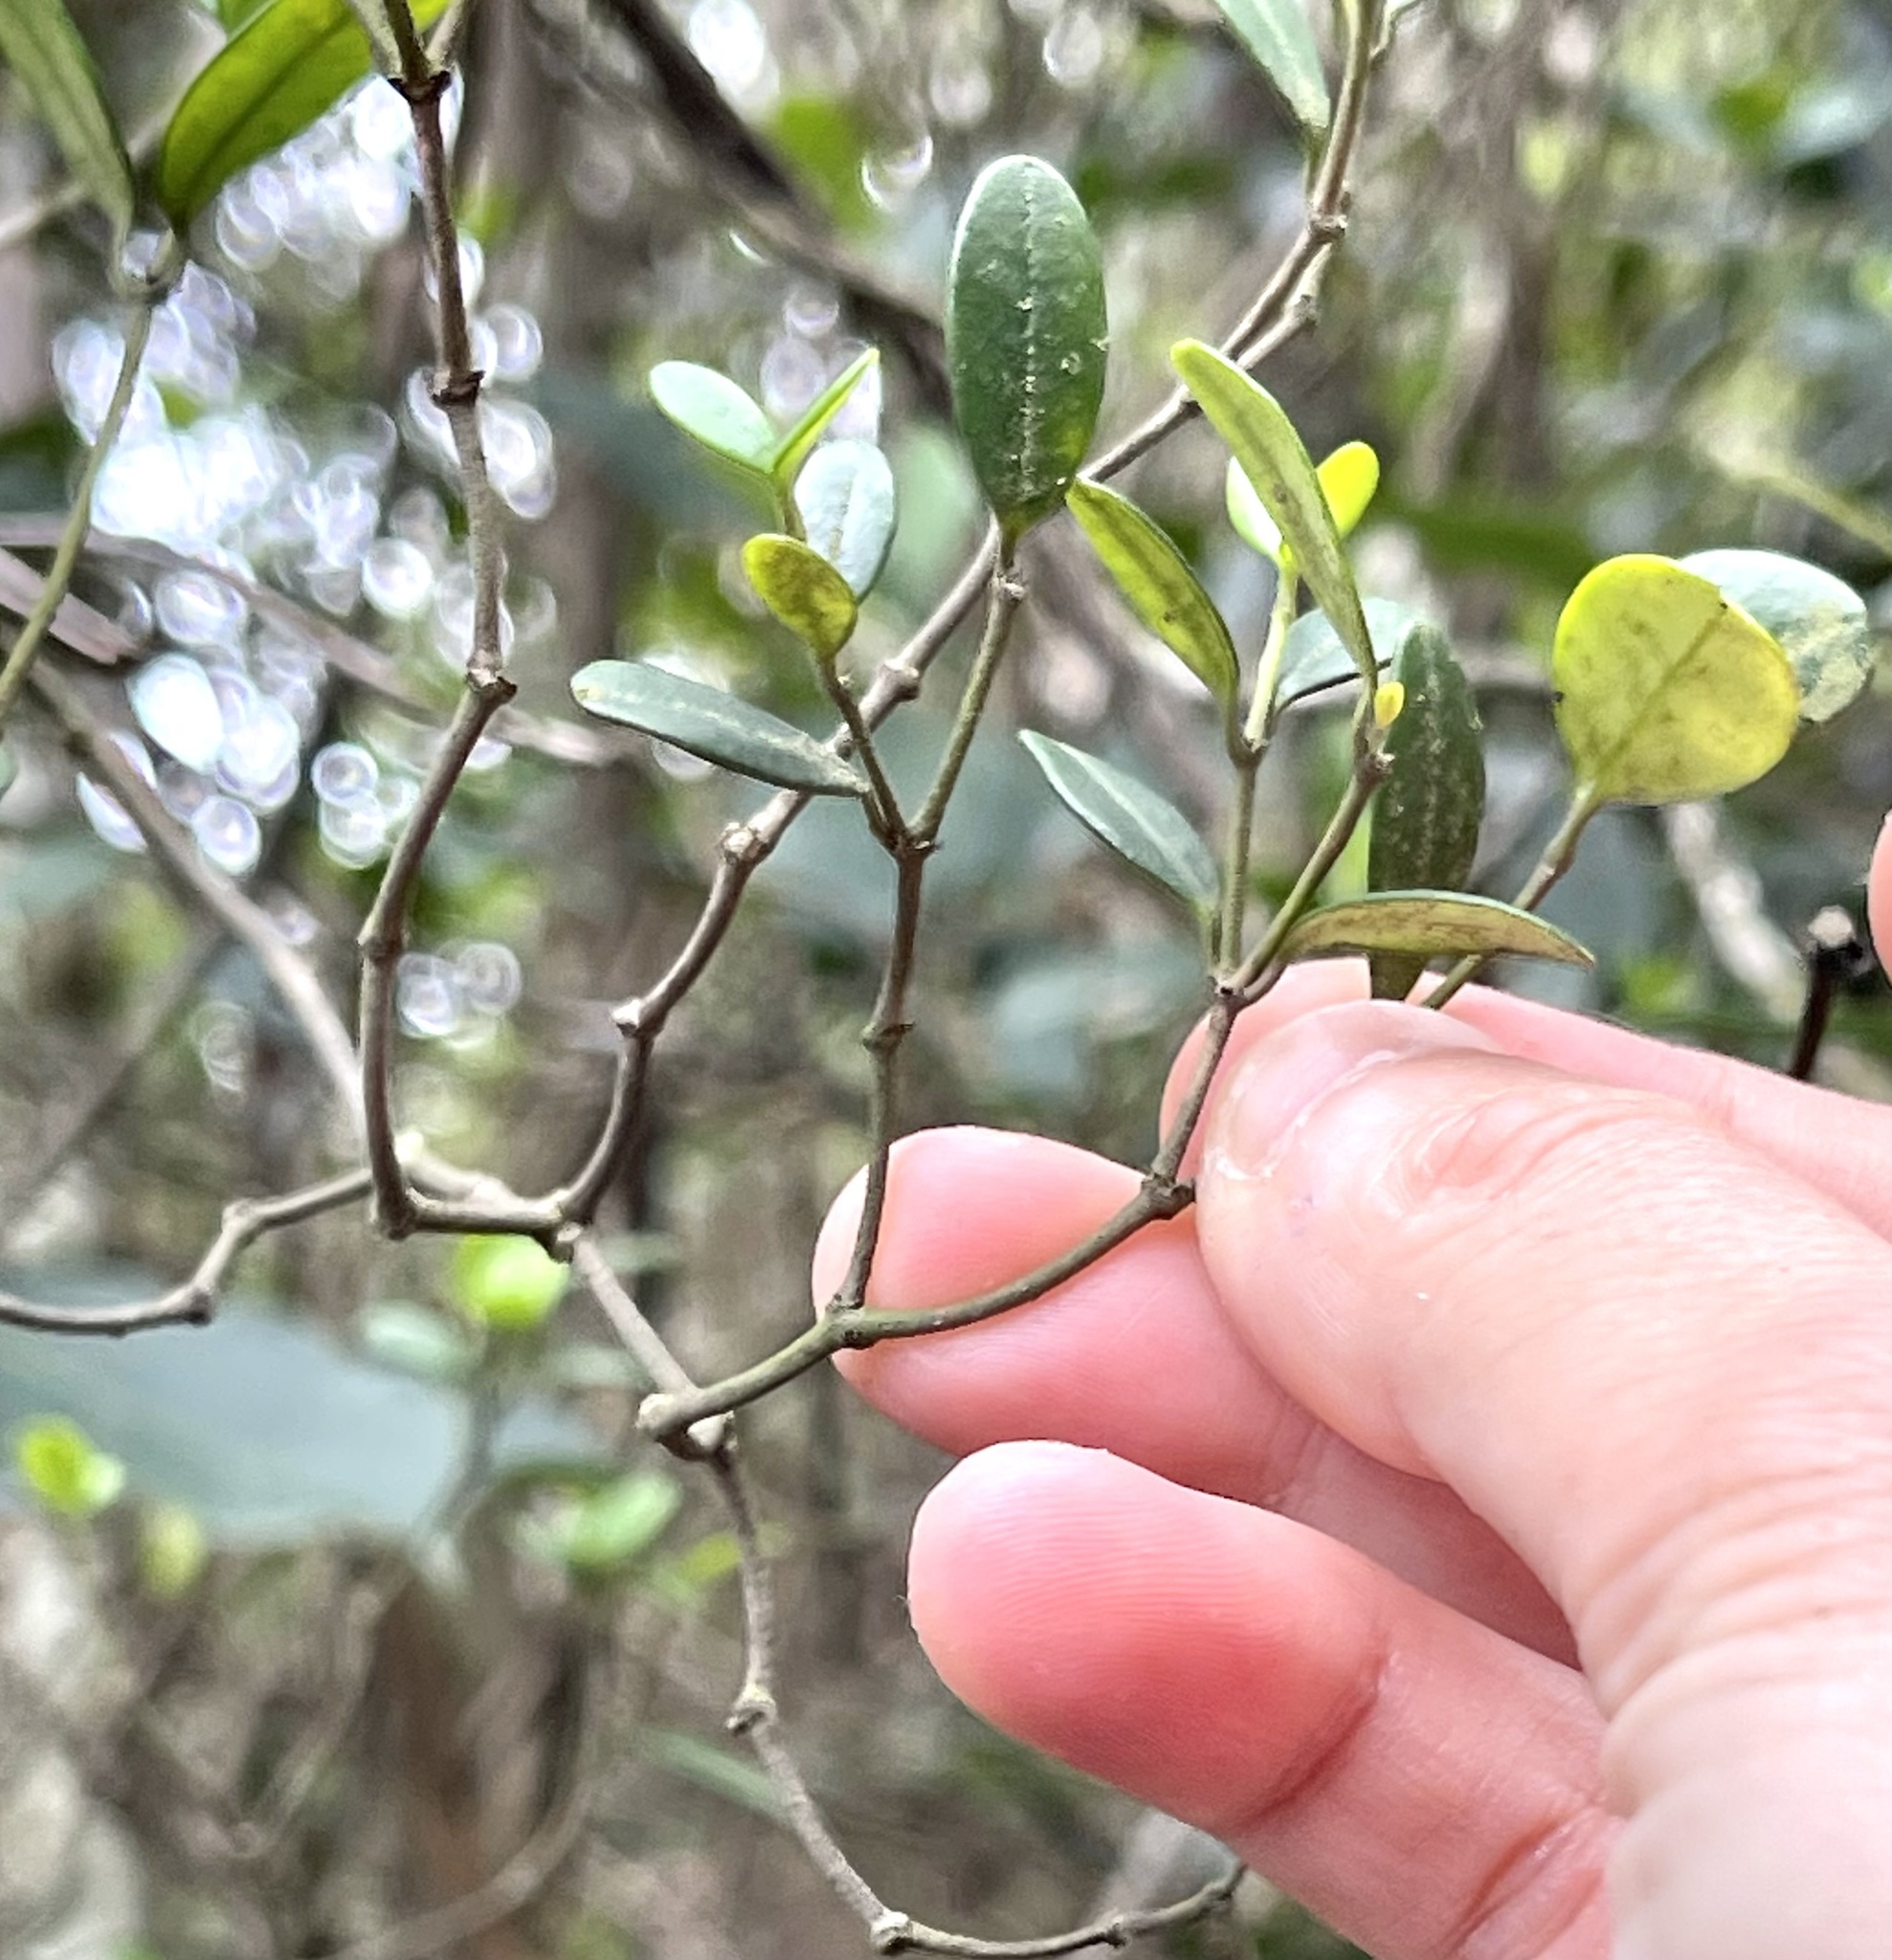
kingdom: Plantae
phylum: Tracheophyta
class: Magnoliopsida
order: Gentianales
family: Apocynaceae
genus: Alyxia
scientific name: Alyxia sinensis
